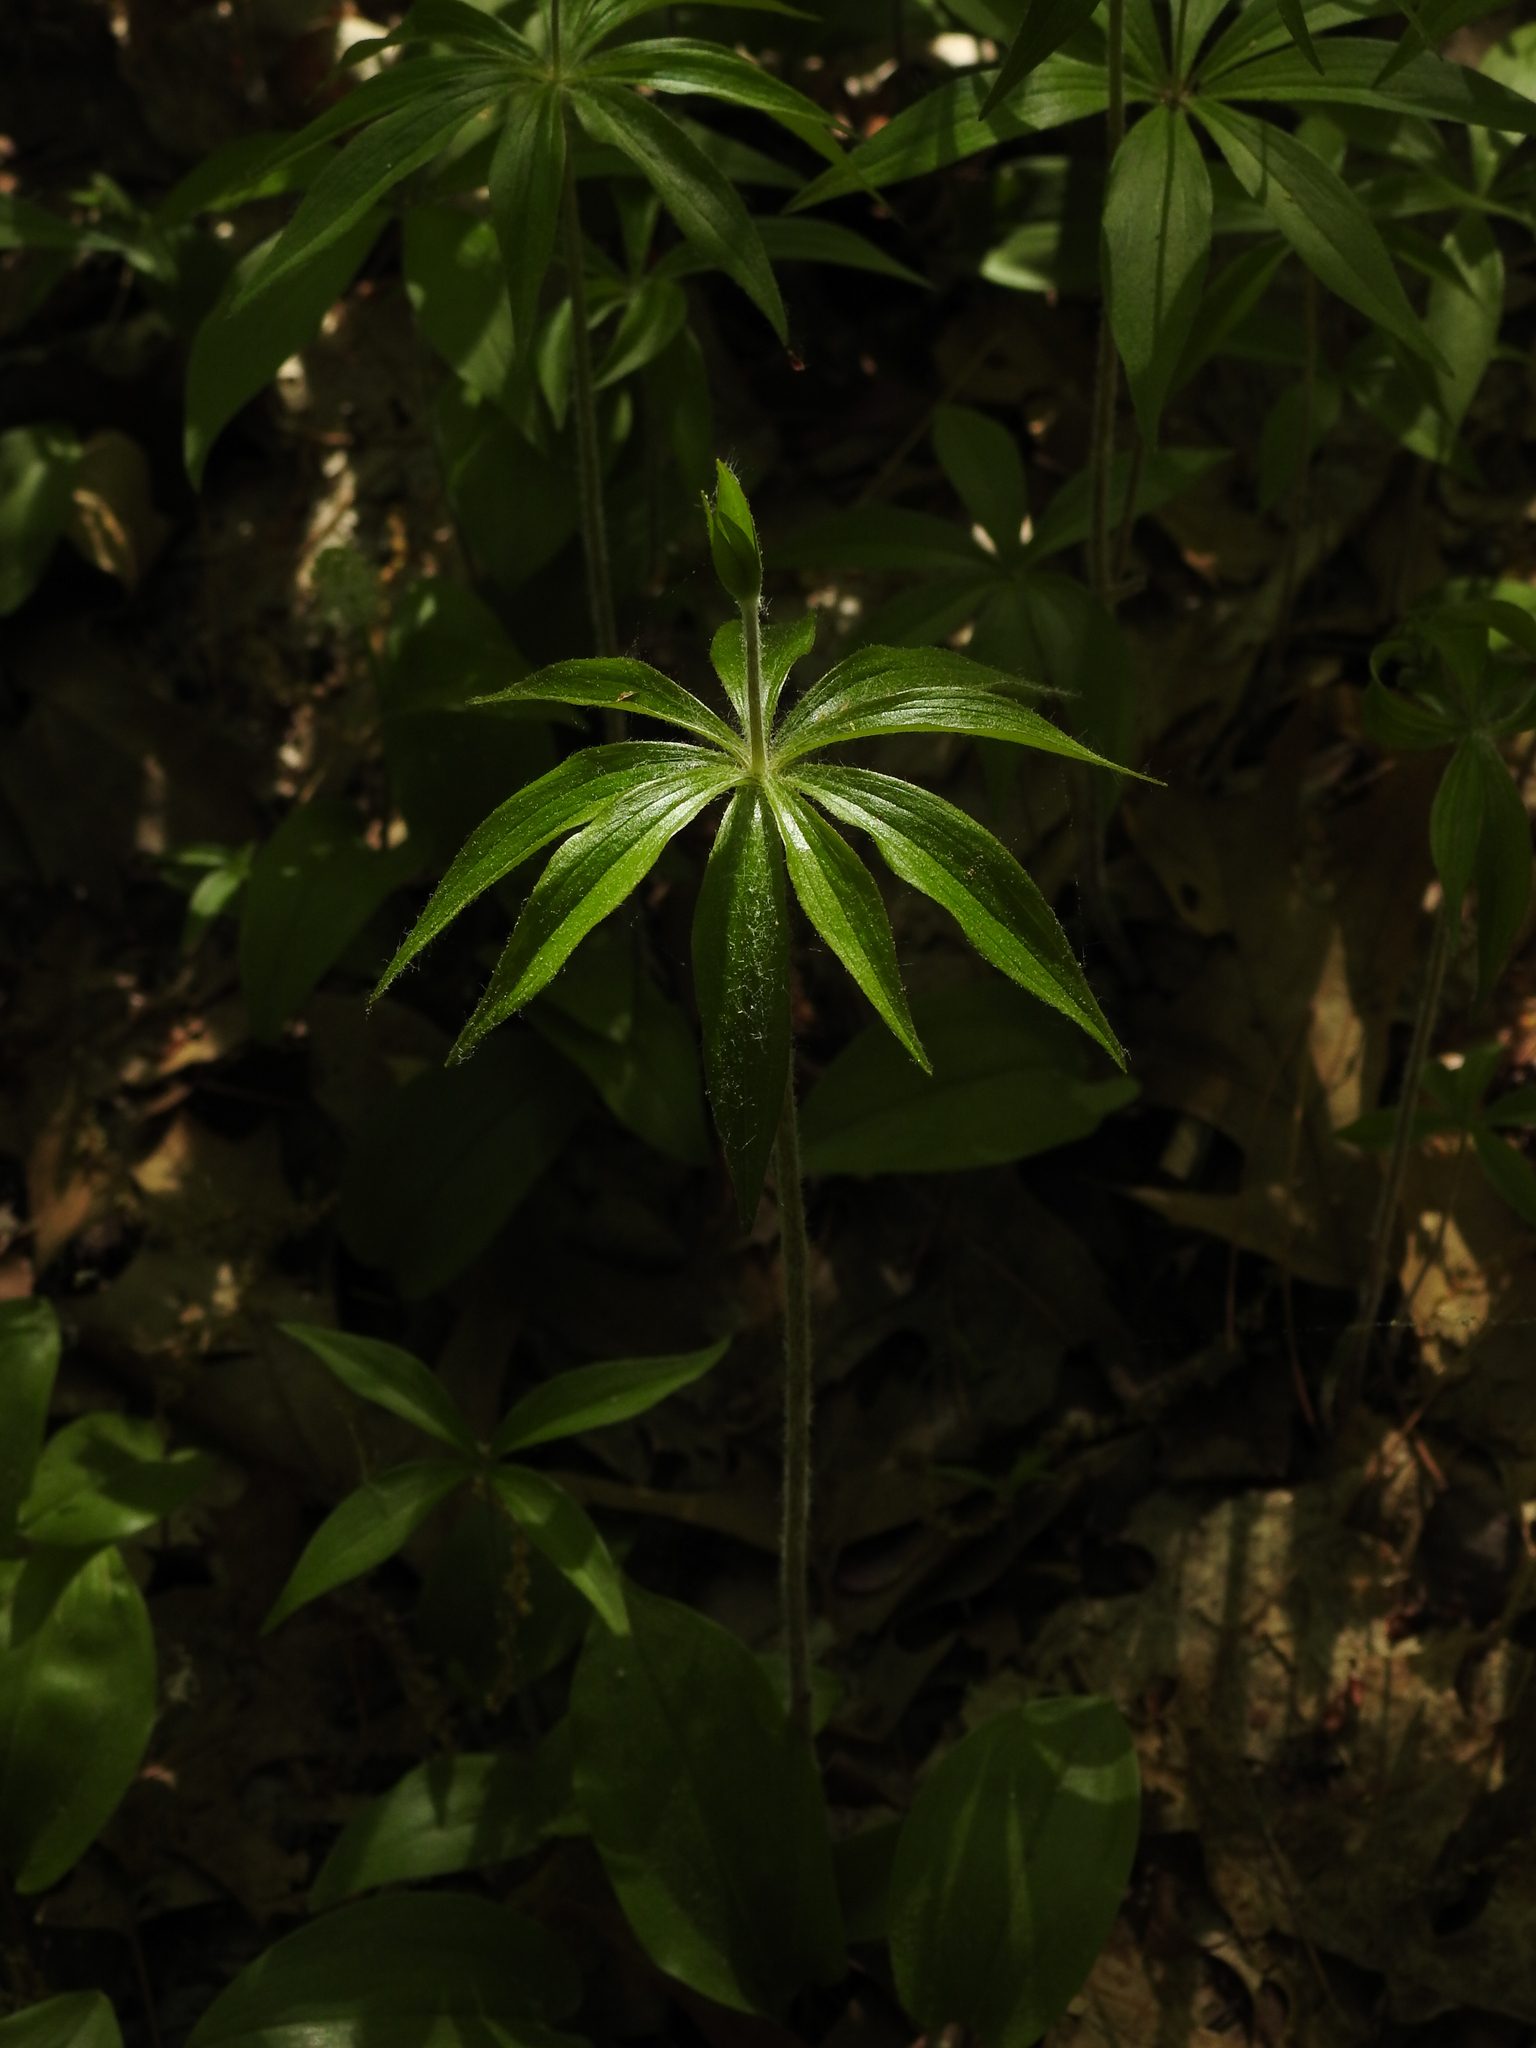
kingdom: Plantae
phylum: Tracheophyta
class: Liliopsida
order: Liliales
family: Liliaceae
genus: Medeola
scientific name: Medeola virginiana
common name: Indian cucumber-root
